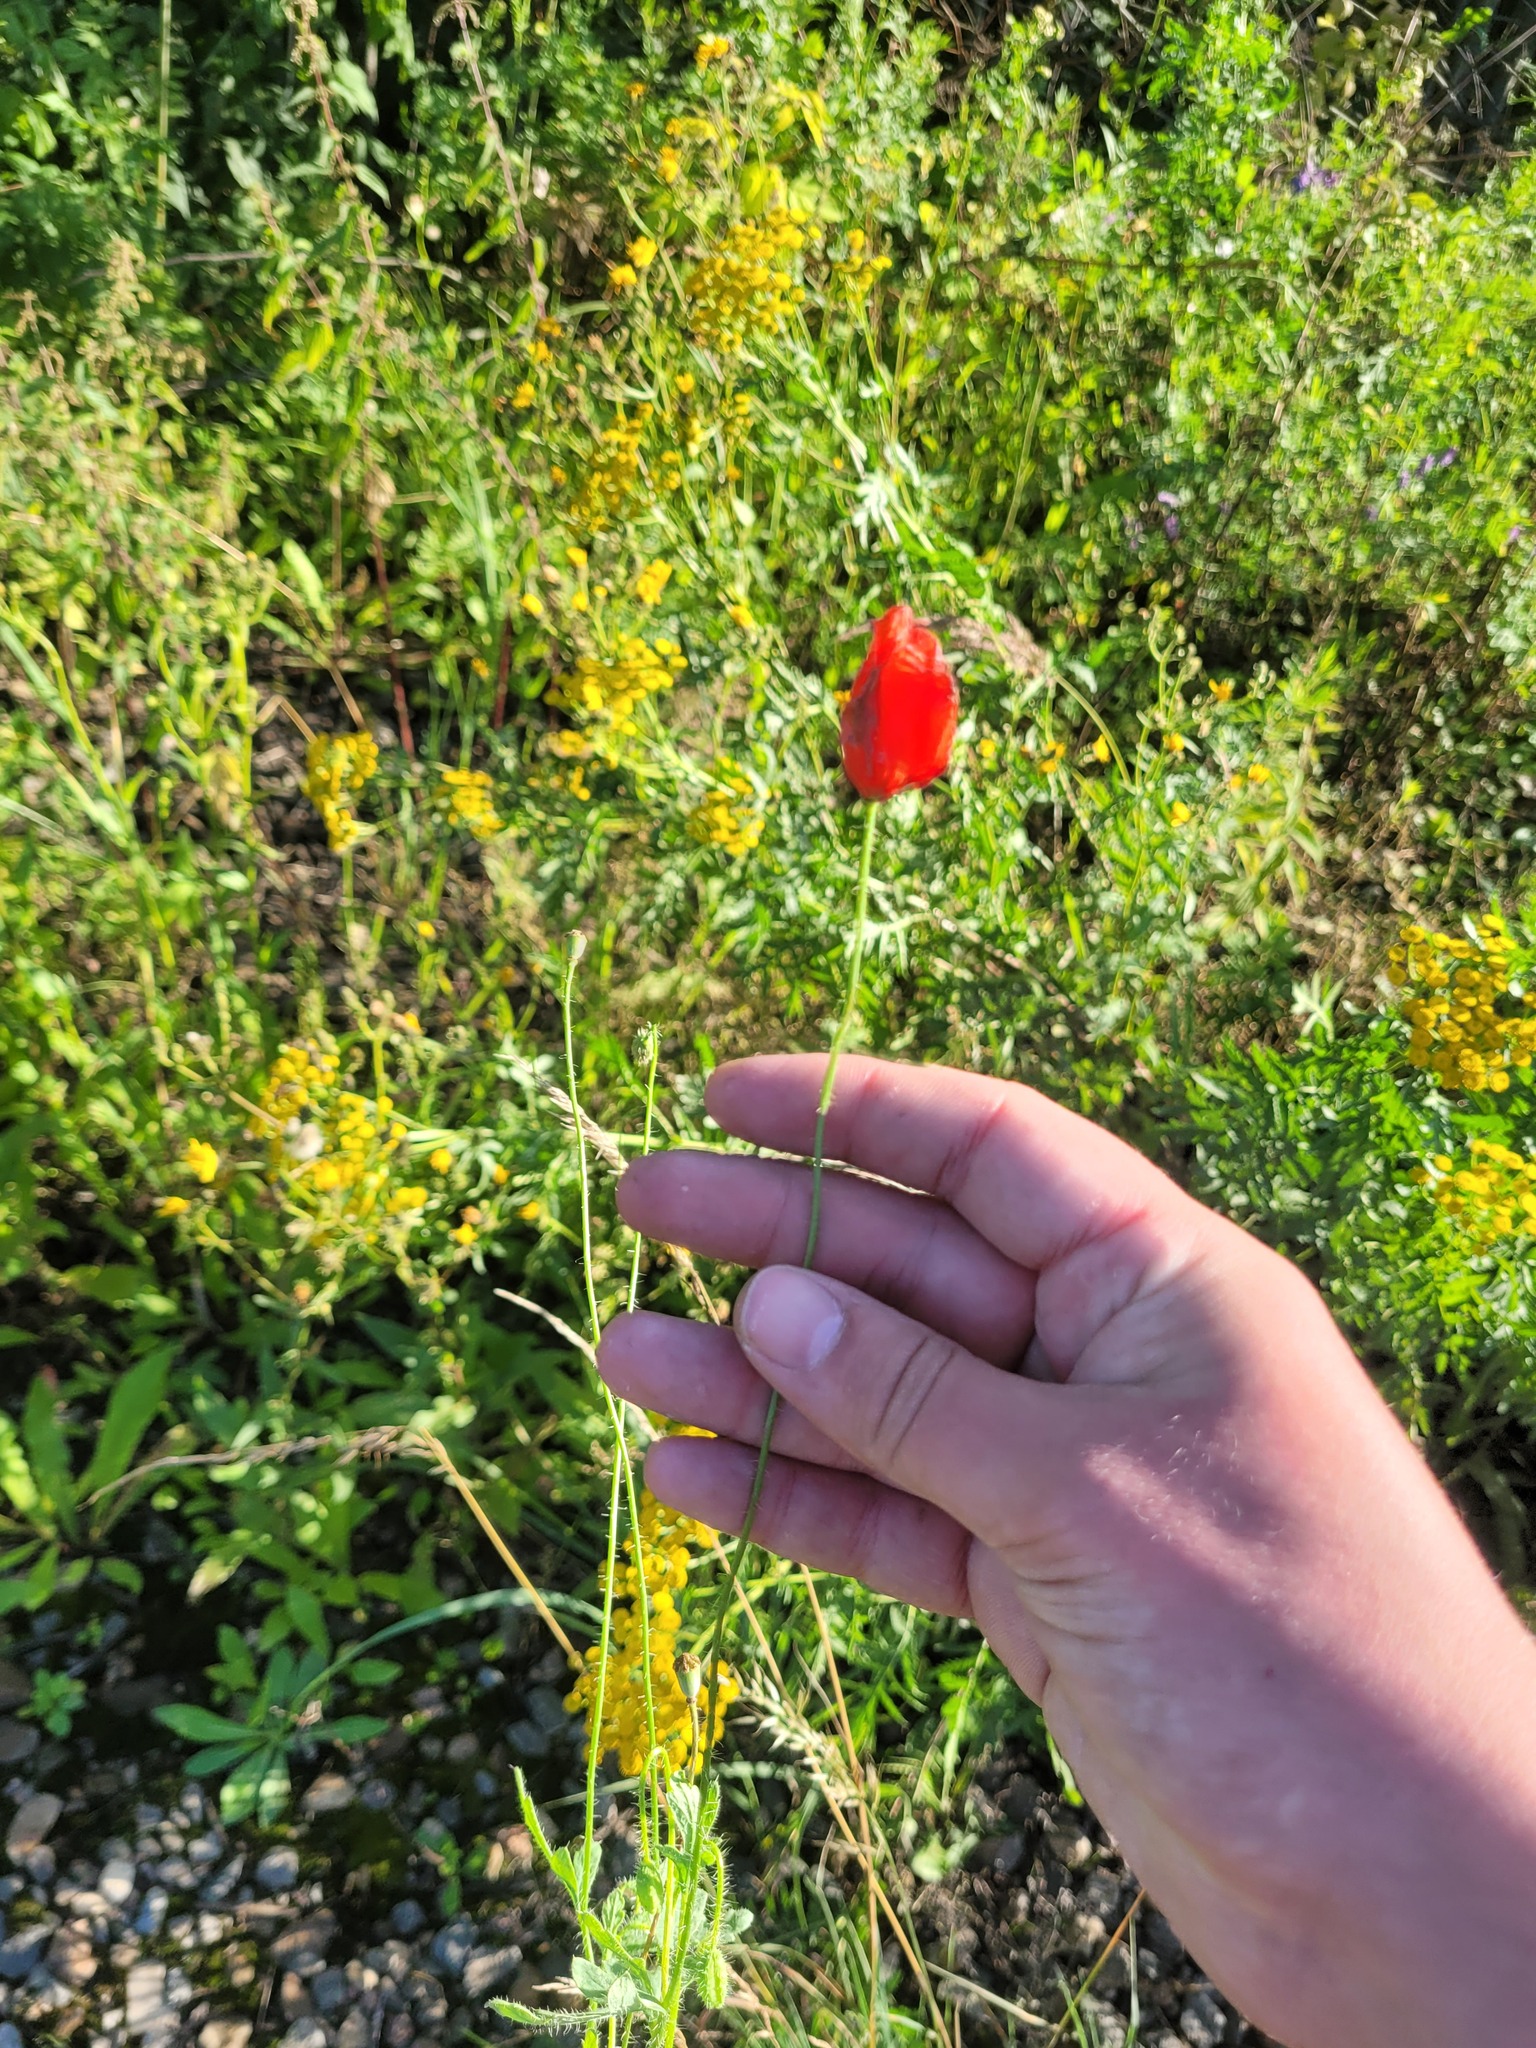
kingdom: Plantae
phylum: Tracheophyta
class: Magnoliopsida
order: Ranunculales
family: Papaveraceae
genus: Papaver
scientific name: Papaver rhoeas
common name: Corn poppy
